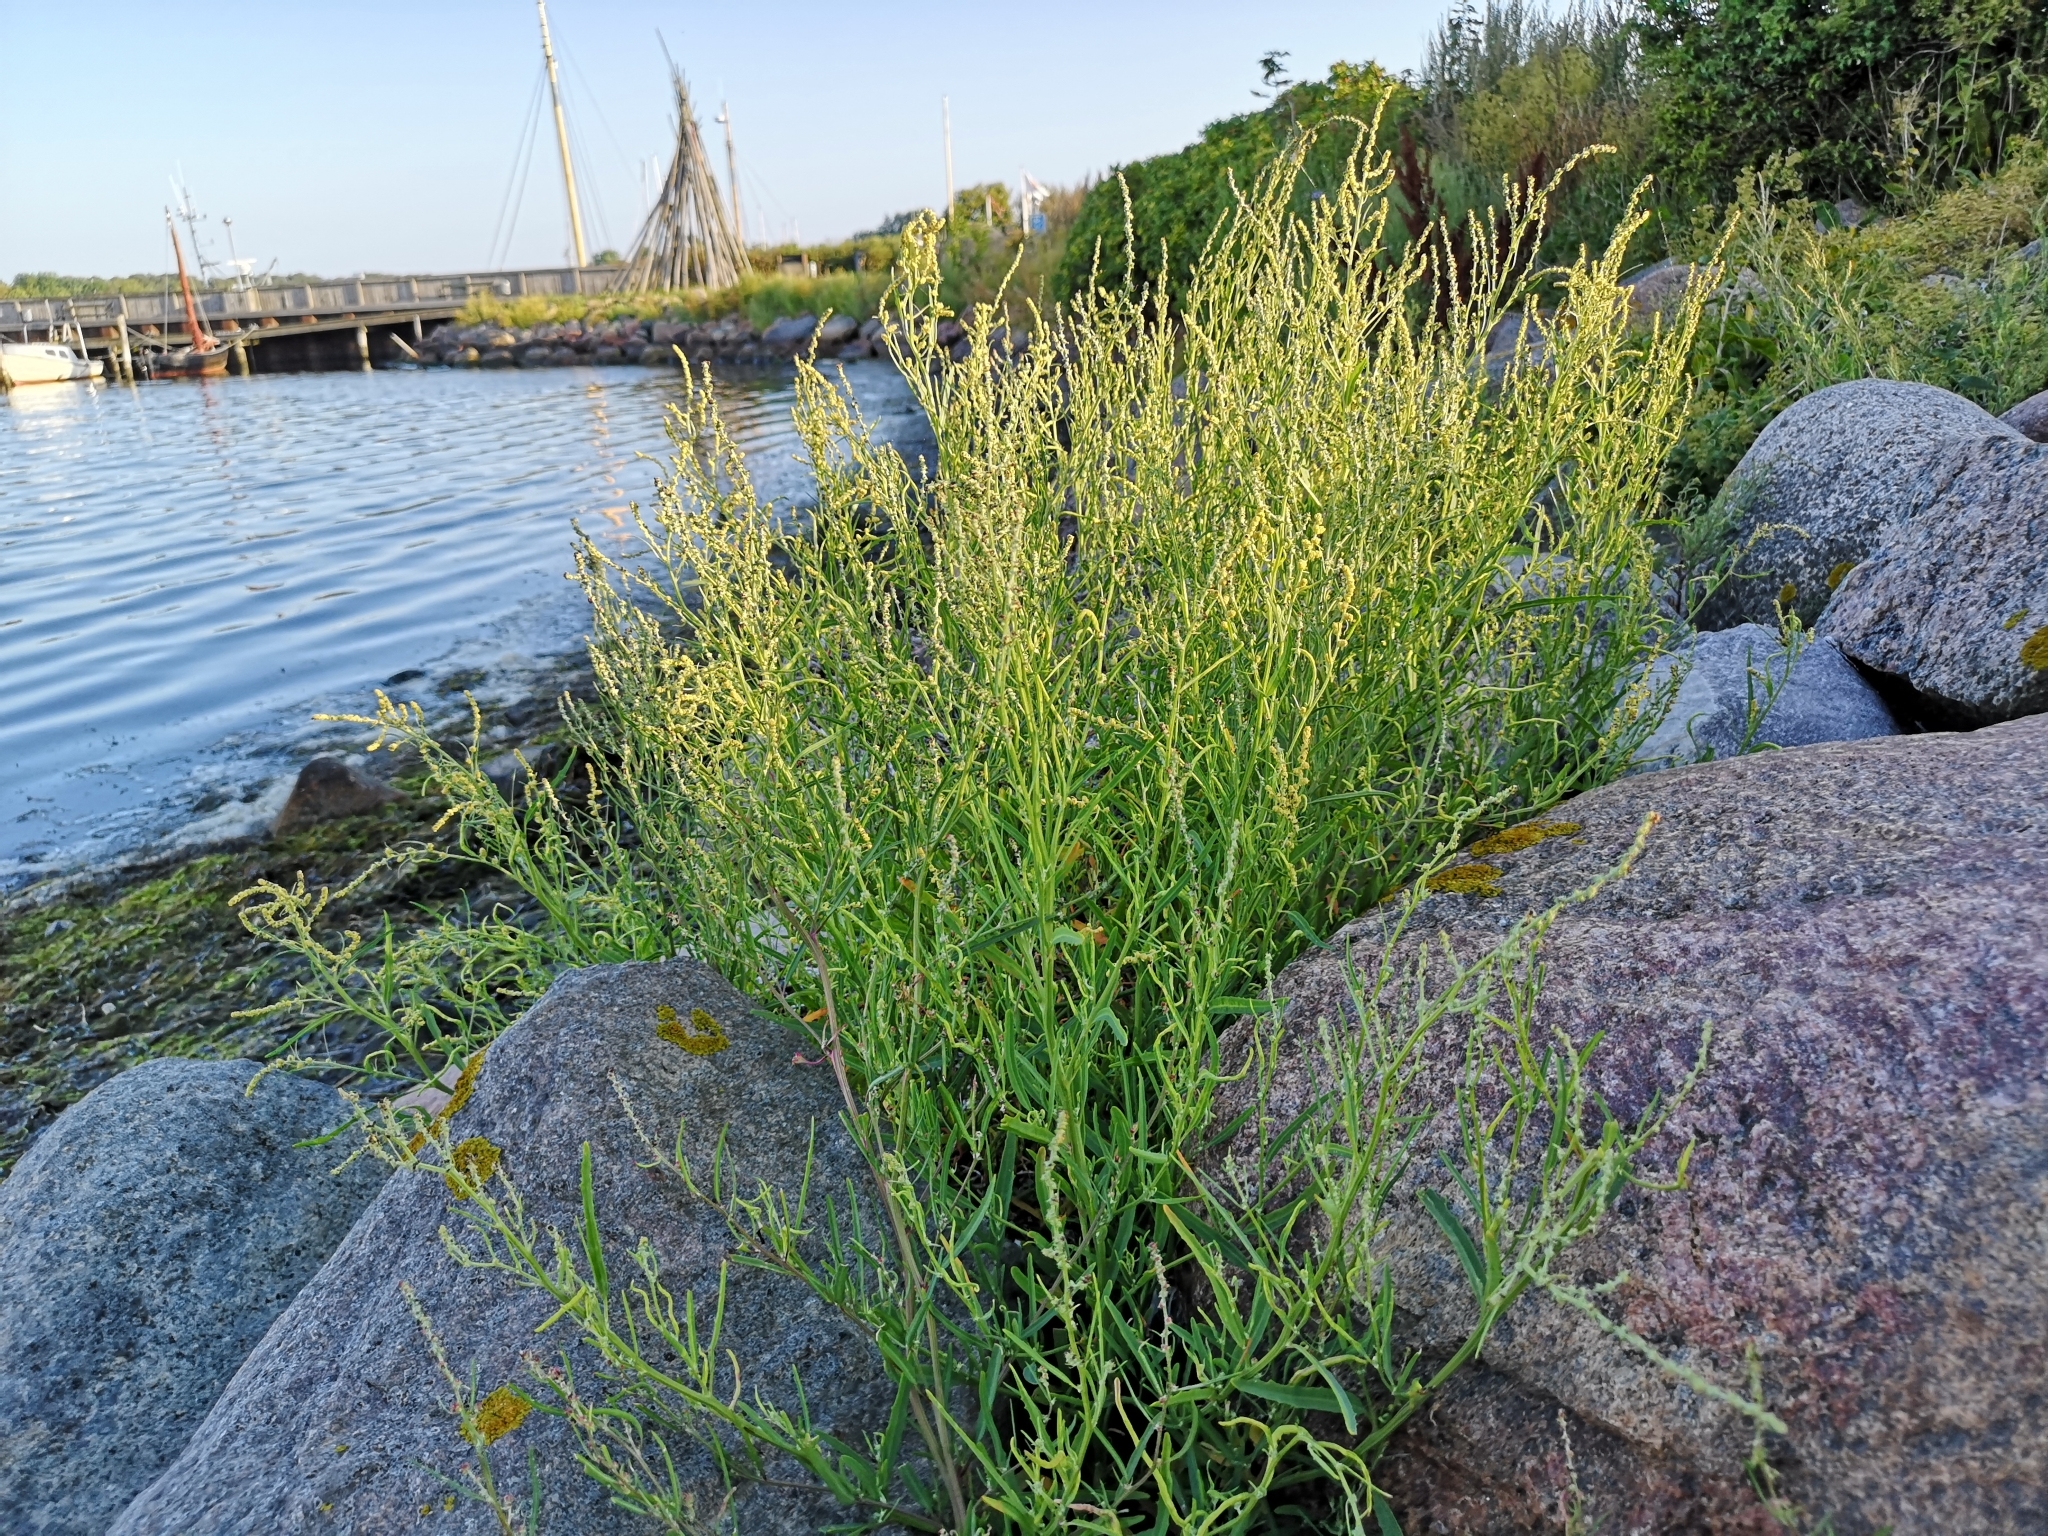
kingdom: Plantae
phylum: Tracheophyta
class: Magnoliopsida
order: Caryophyllales
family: Amaranthaceae
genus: Atriplex
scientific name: Atriplex littoralis
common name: Grass-leaved orache
